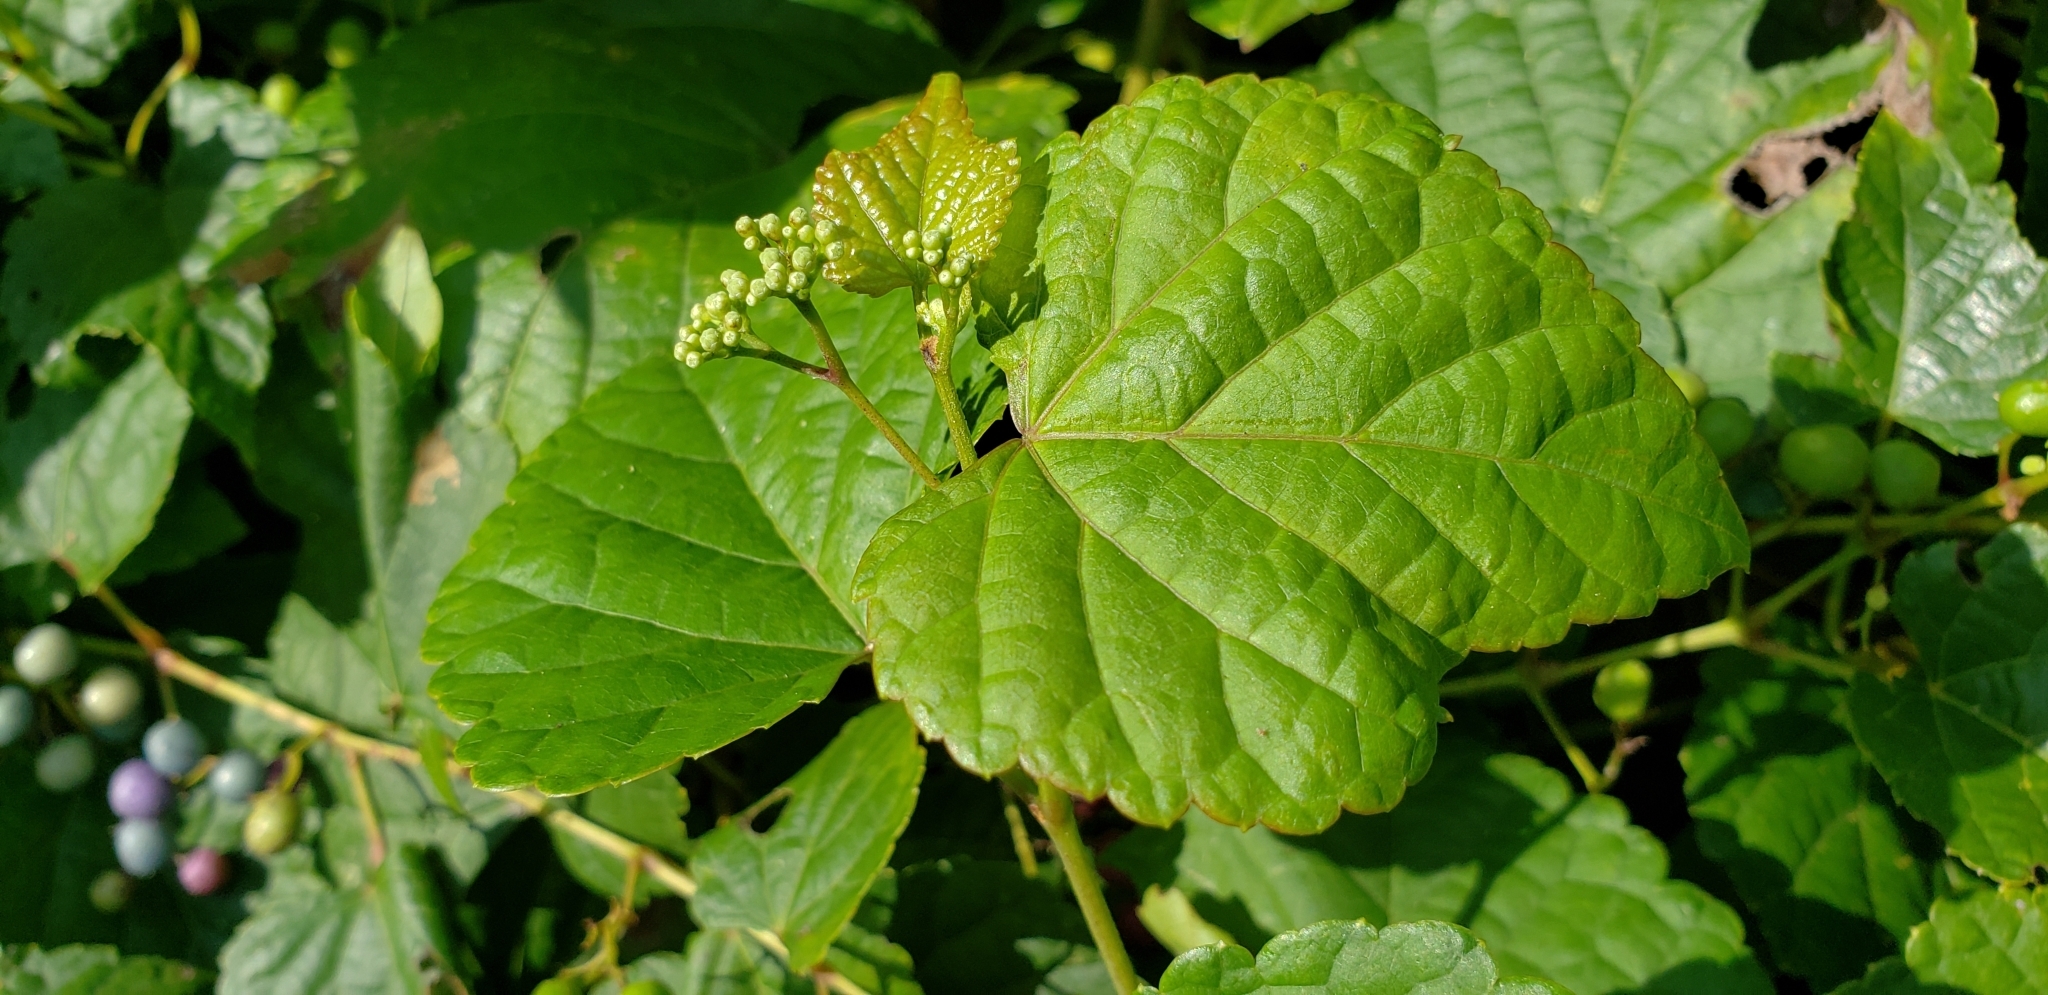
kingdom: Plantae
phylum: Tracheophyta
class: Magnoliopsida
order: Vitales
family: Vitaceae
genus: Ampelopsis
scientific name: Ampelopsis glandulosa
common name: Amur peppervine
